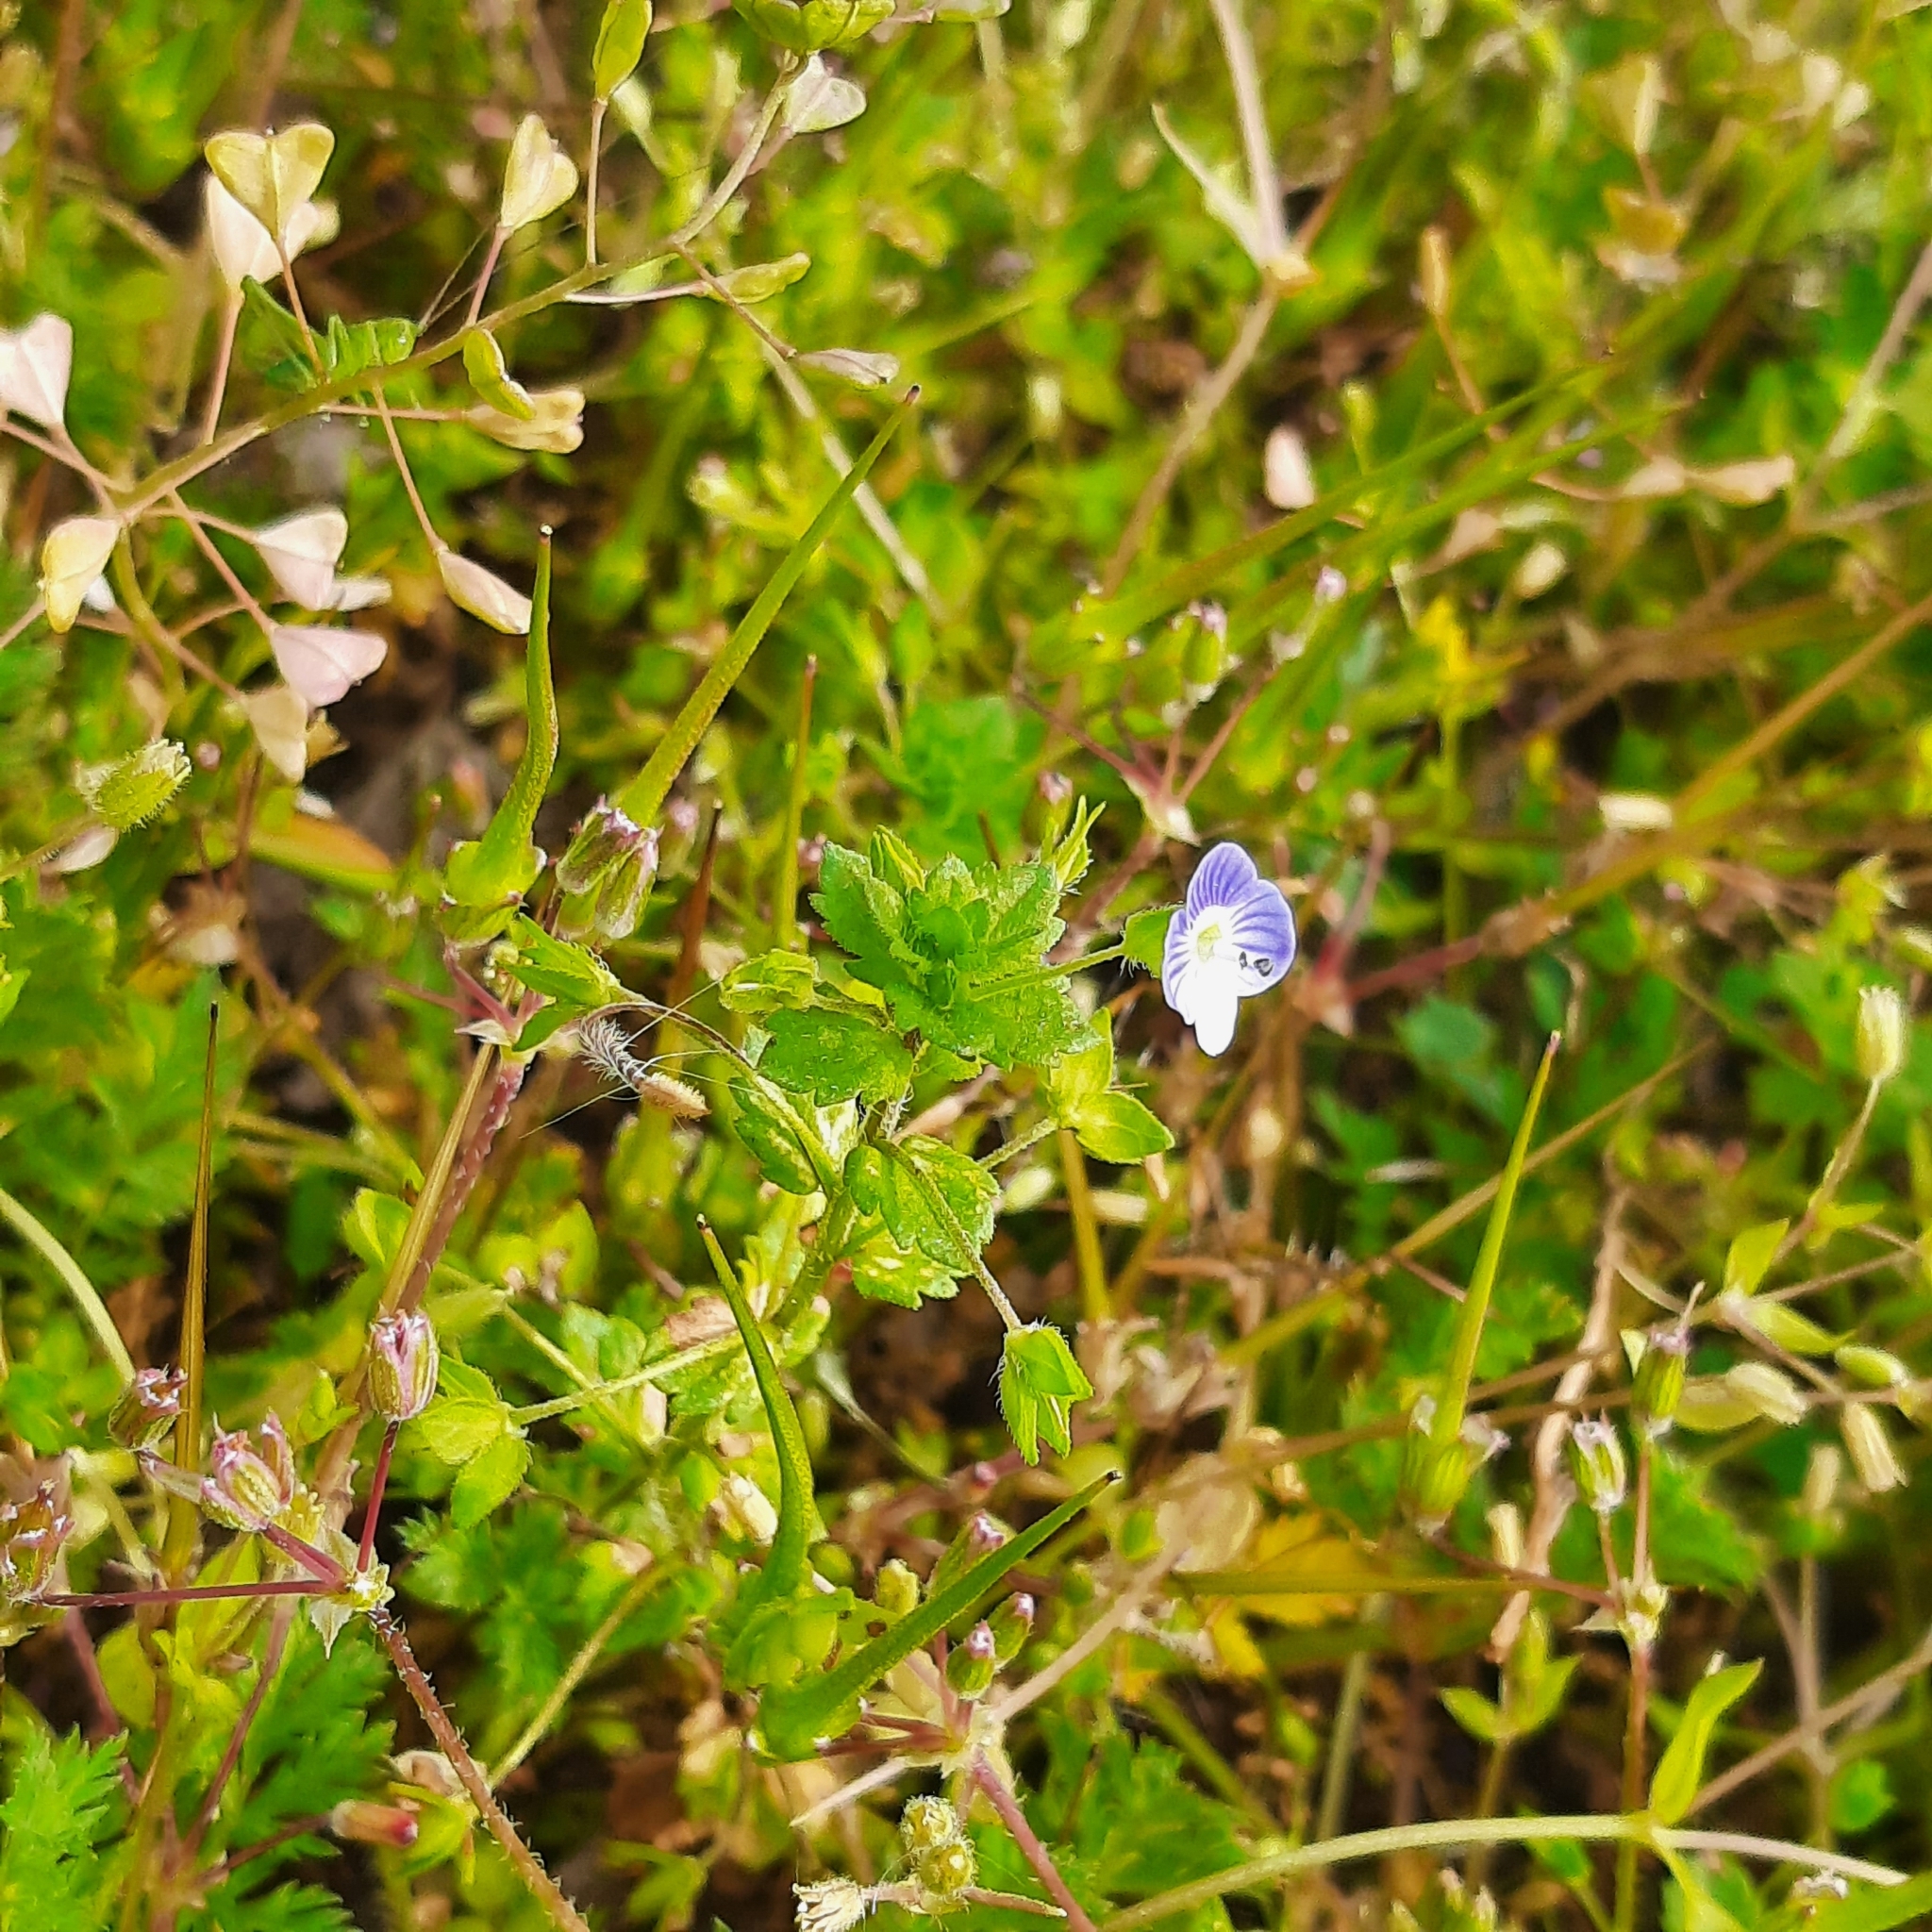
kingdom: Plantae
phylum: Tracheophyta
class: Magnoliopsida
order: Lamiales
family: Plantaginaceae
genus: Veronica
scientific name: Veronica persica
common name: Common field-speedwell
